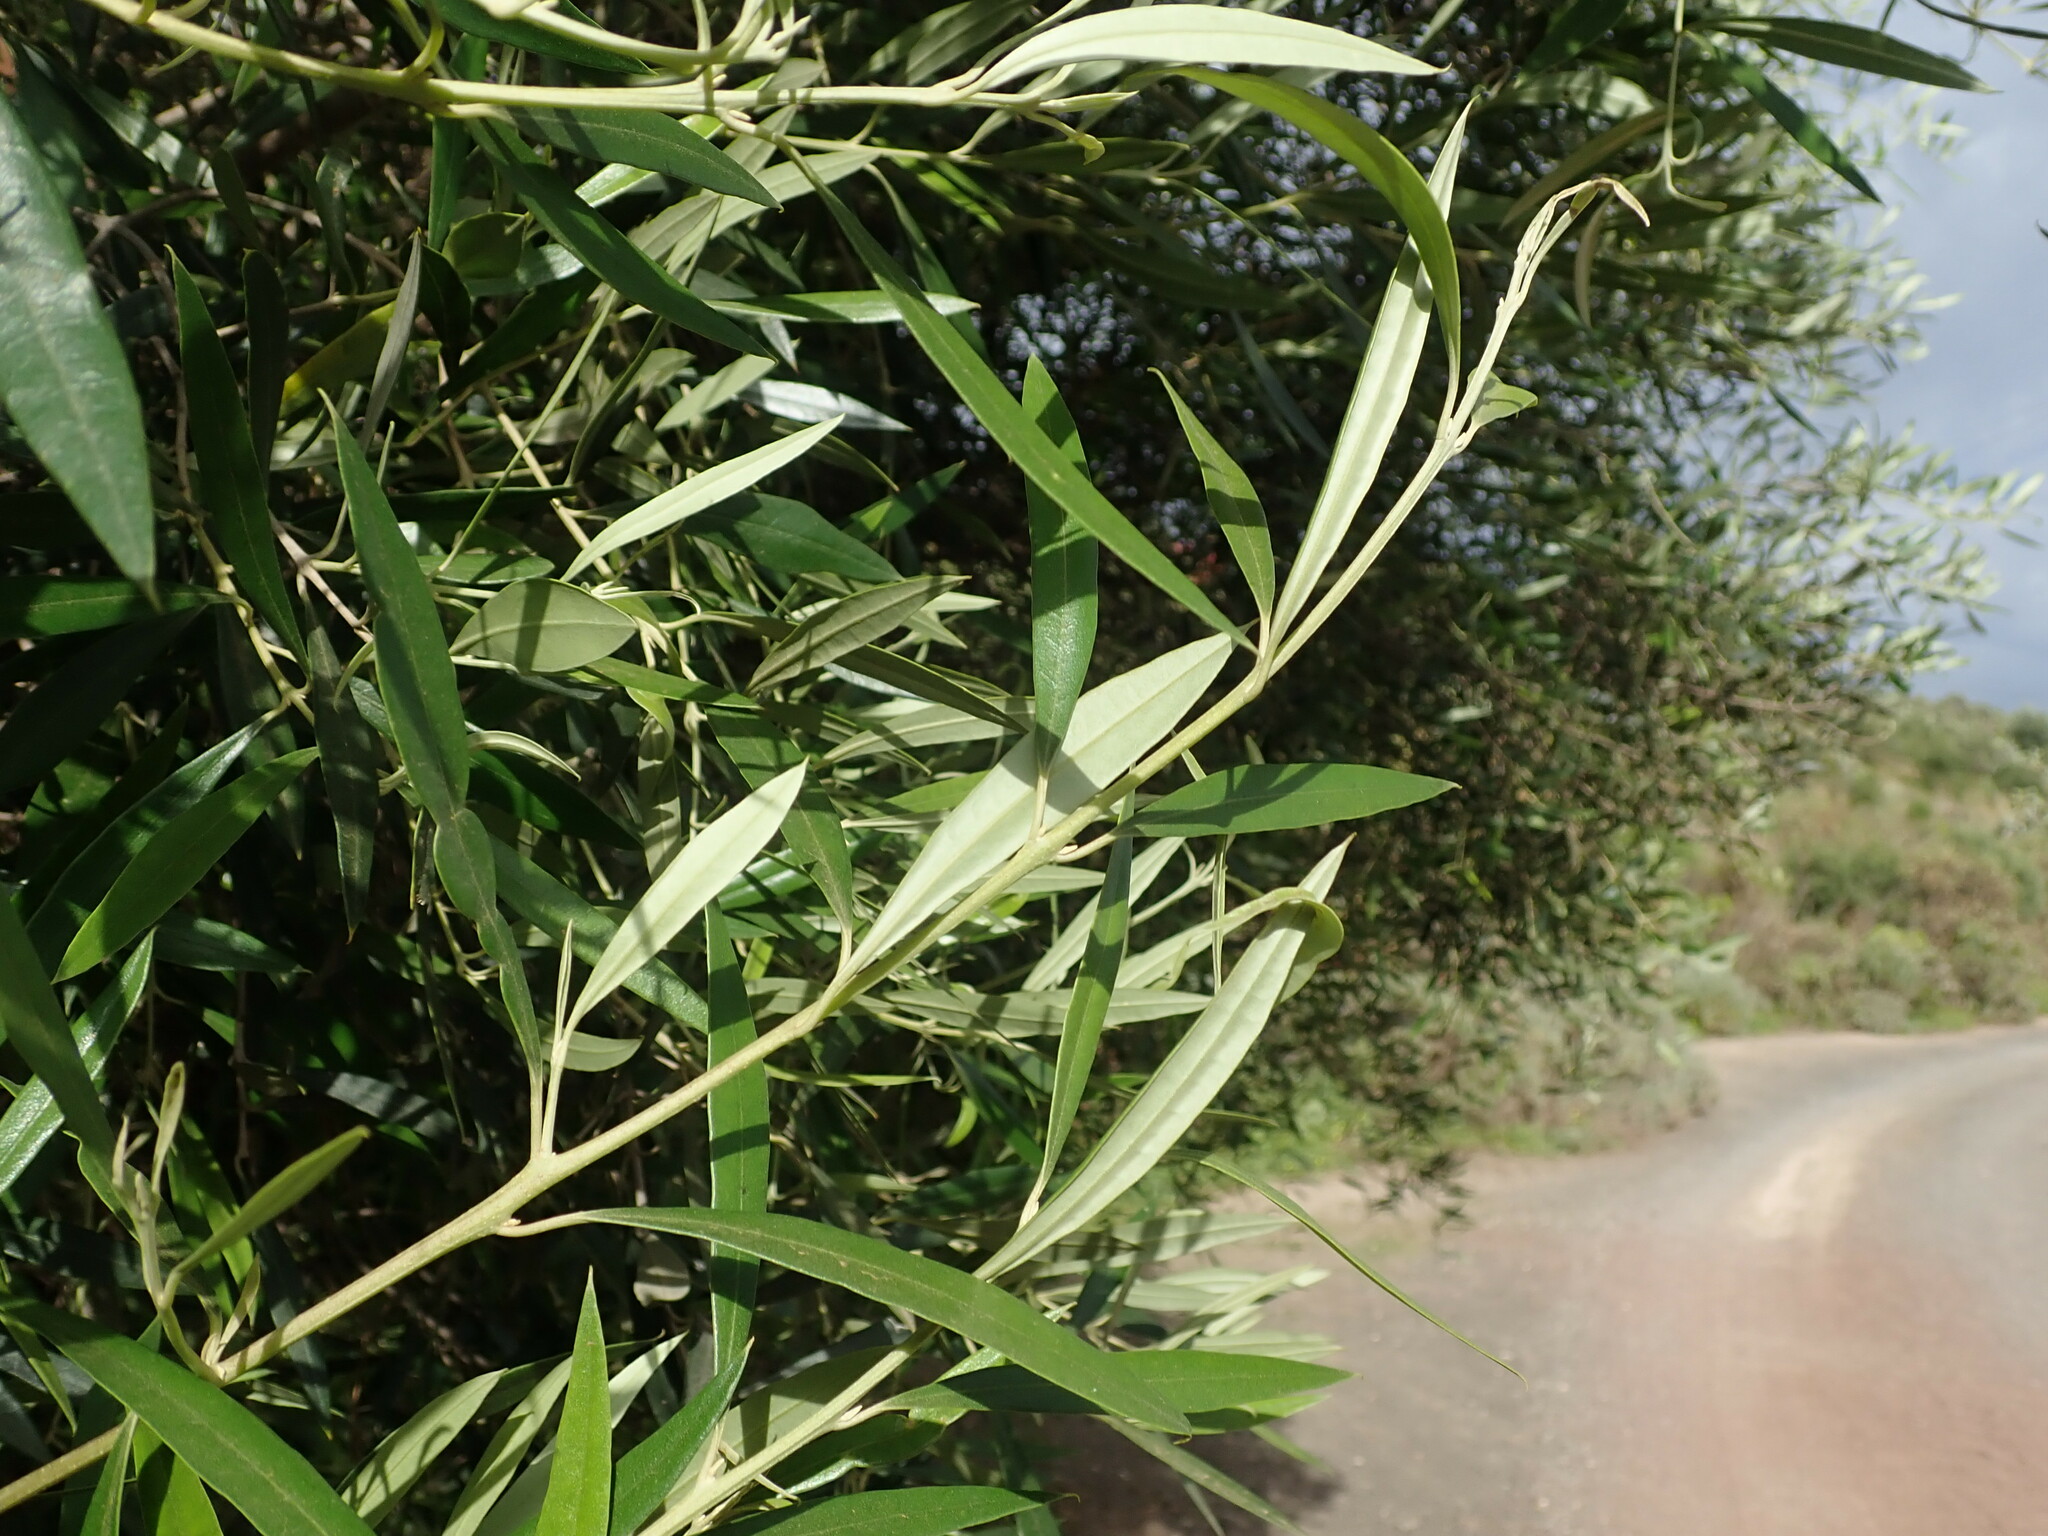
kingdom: Plantae
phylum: Tracheophyta
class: Magnoliopsida
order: Lamiales
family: Oleaceae
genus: Olea
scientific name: Olea europaea
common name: Olive
